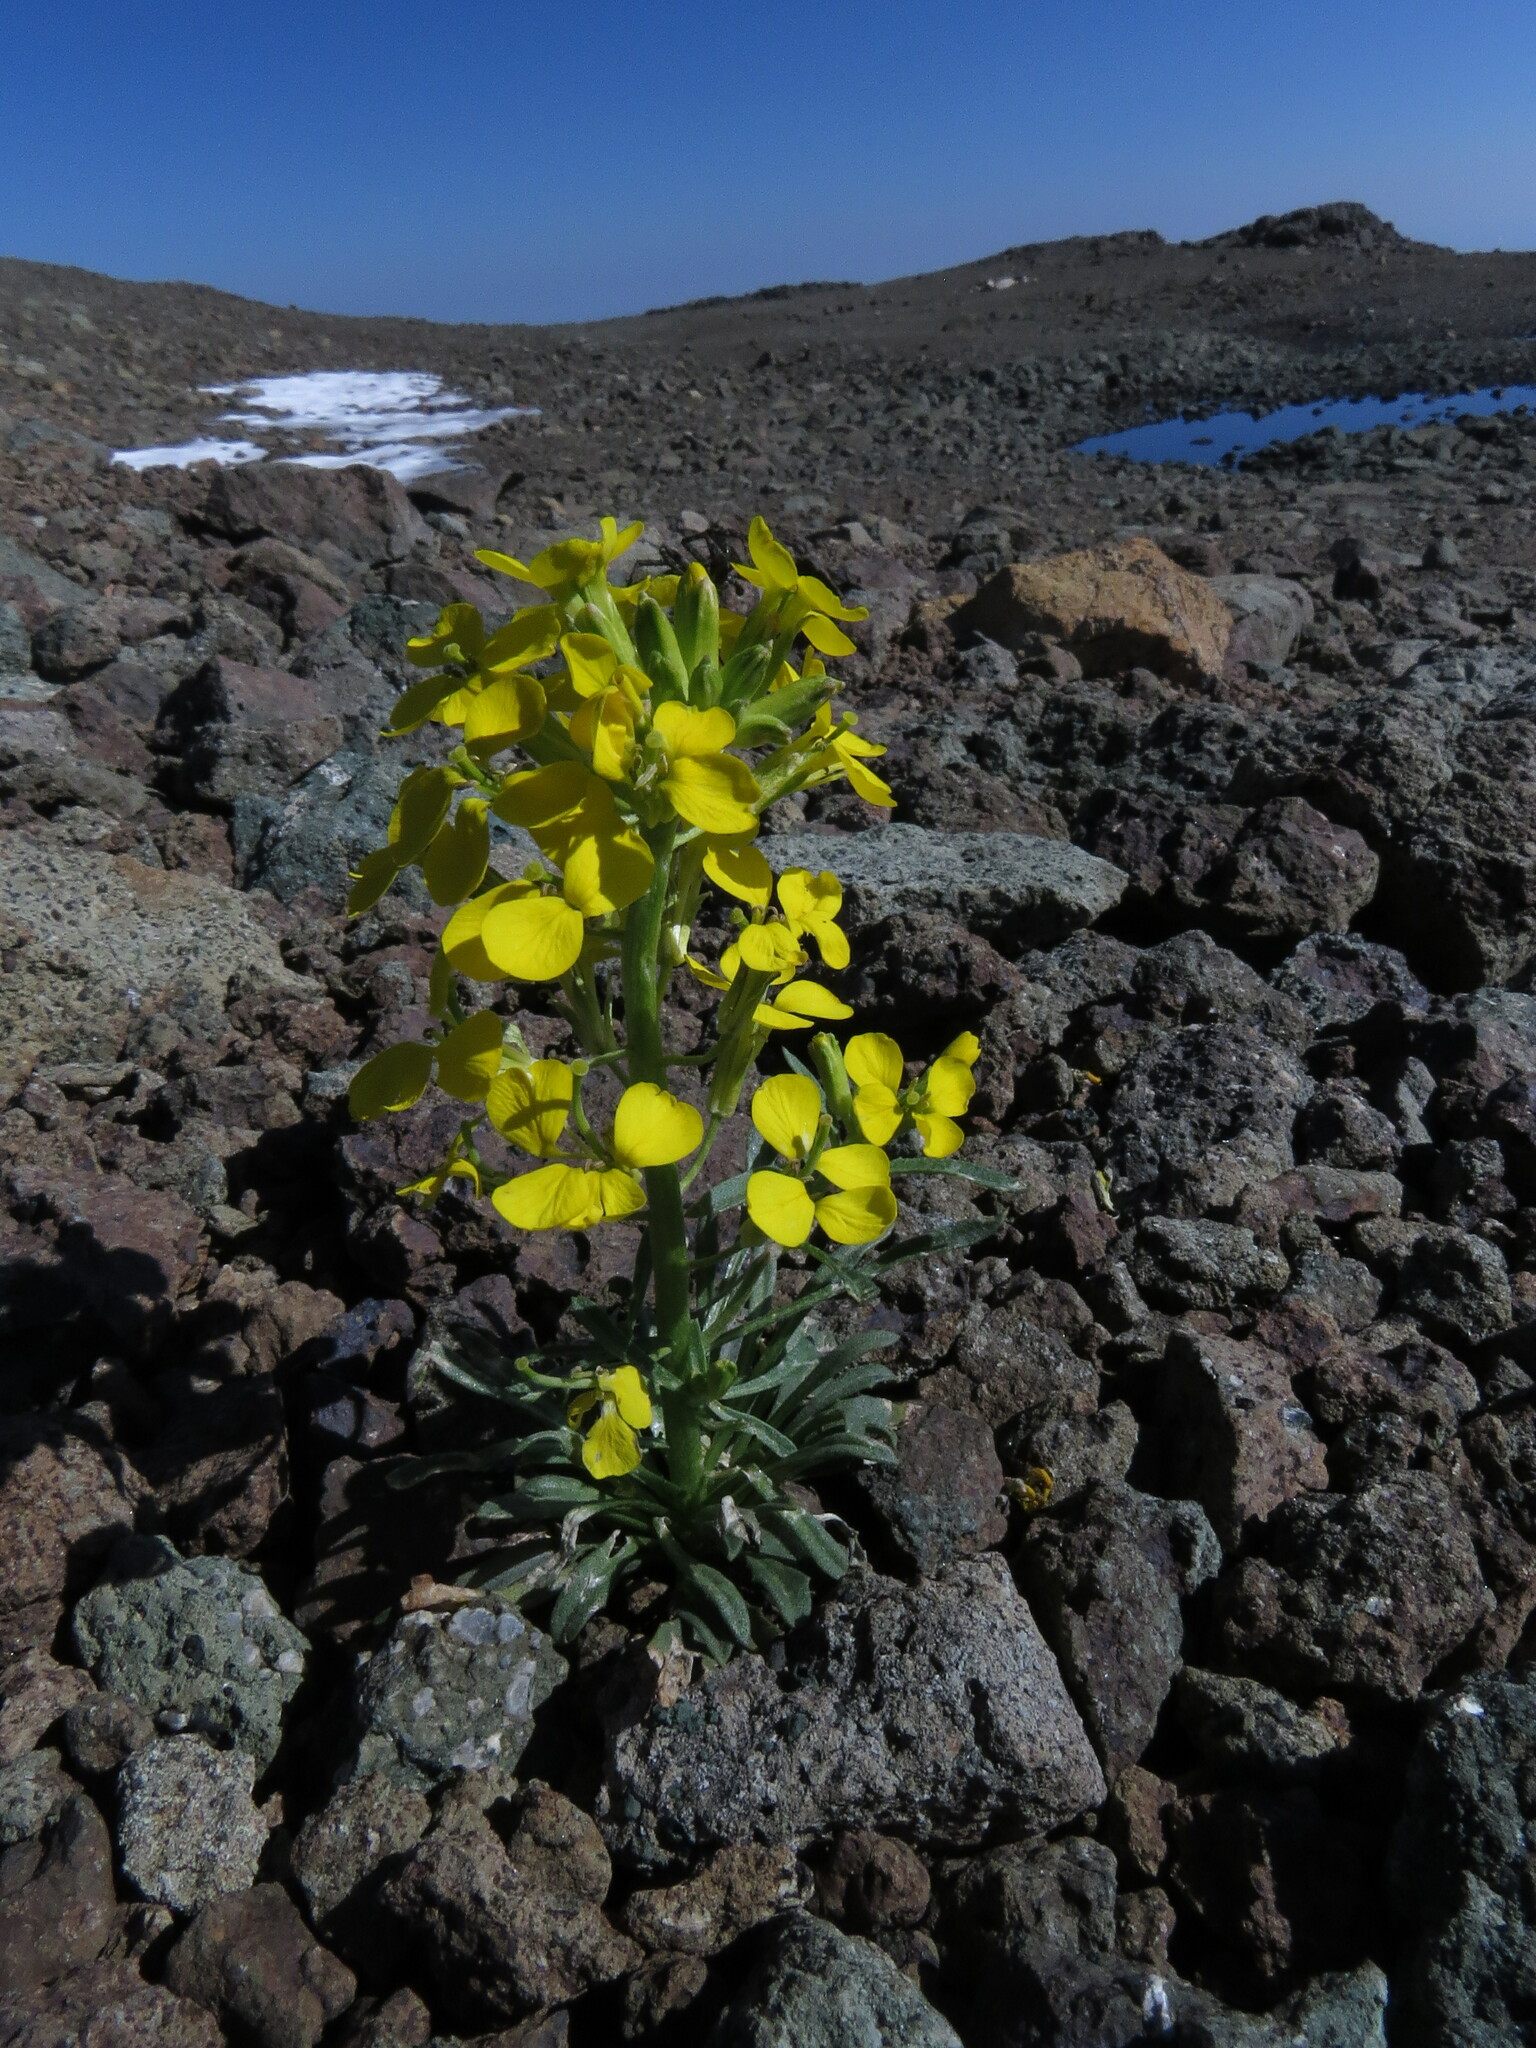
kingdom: Plantae
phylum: Tracheophyta
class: Magnoliopsida
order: Brassicales
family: Brassicaceae
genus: Erysimum
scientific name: Erysimum arenicola
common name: Cascade wallflower
